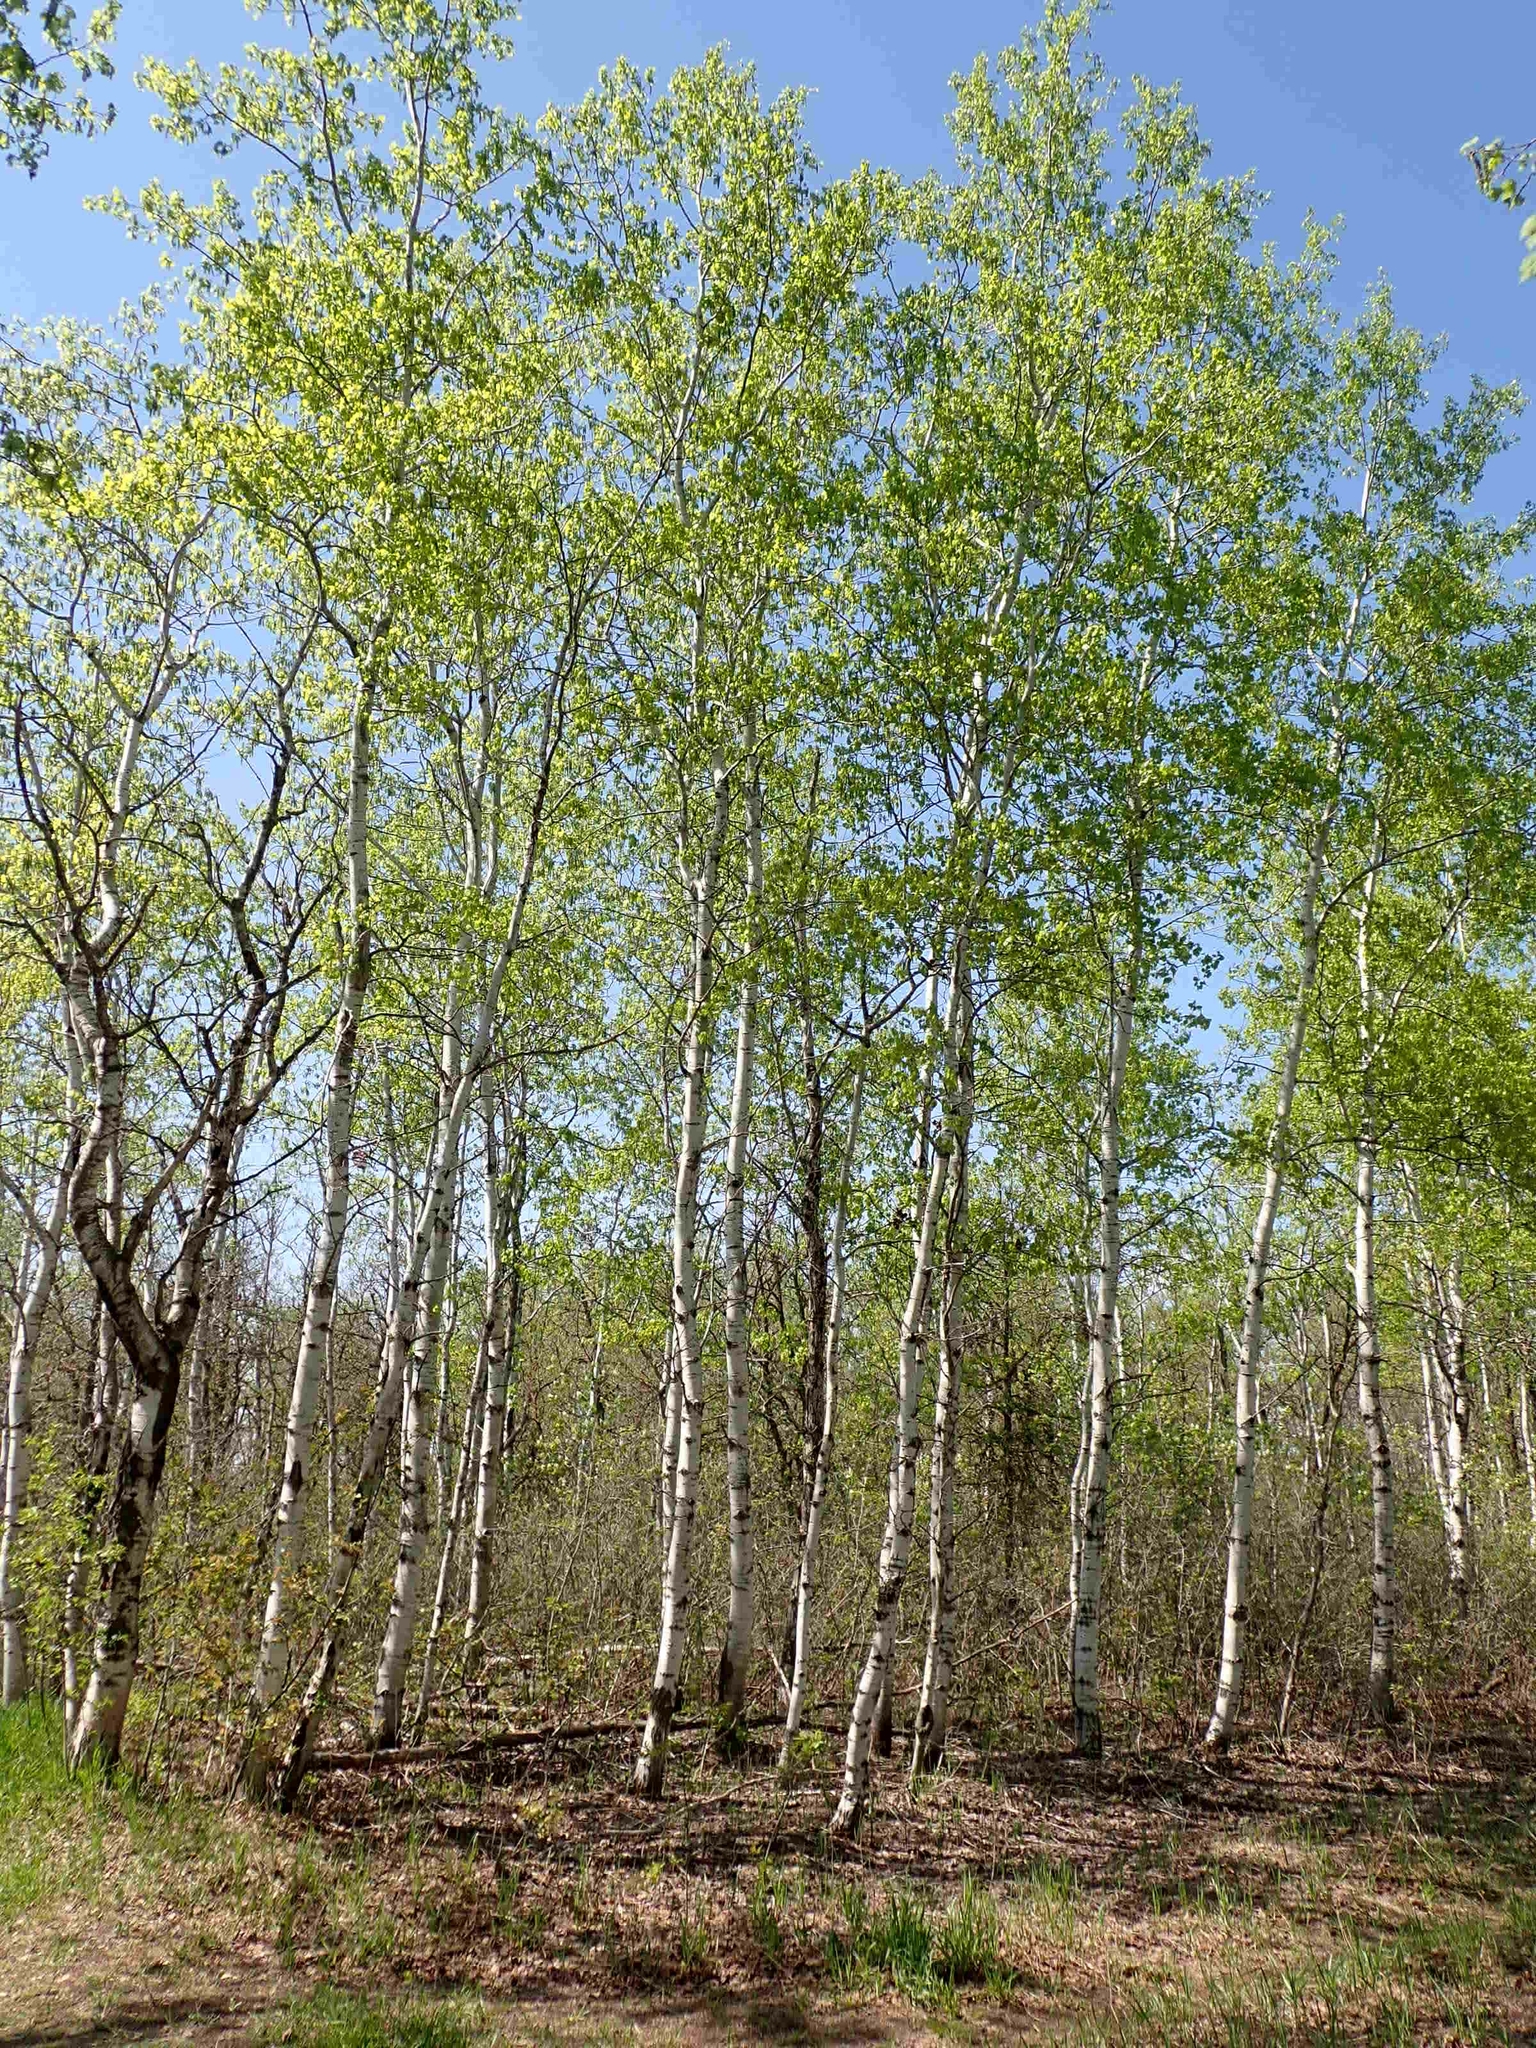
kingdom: Plantae
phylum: Tracheophyta
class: Magnoliopsida
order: Malpighiales
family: Salicaceae
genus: Populus
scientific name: Populus tremuloides
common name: Quaking aspen
